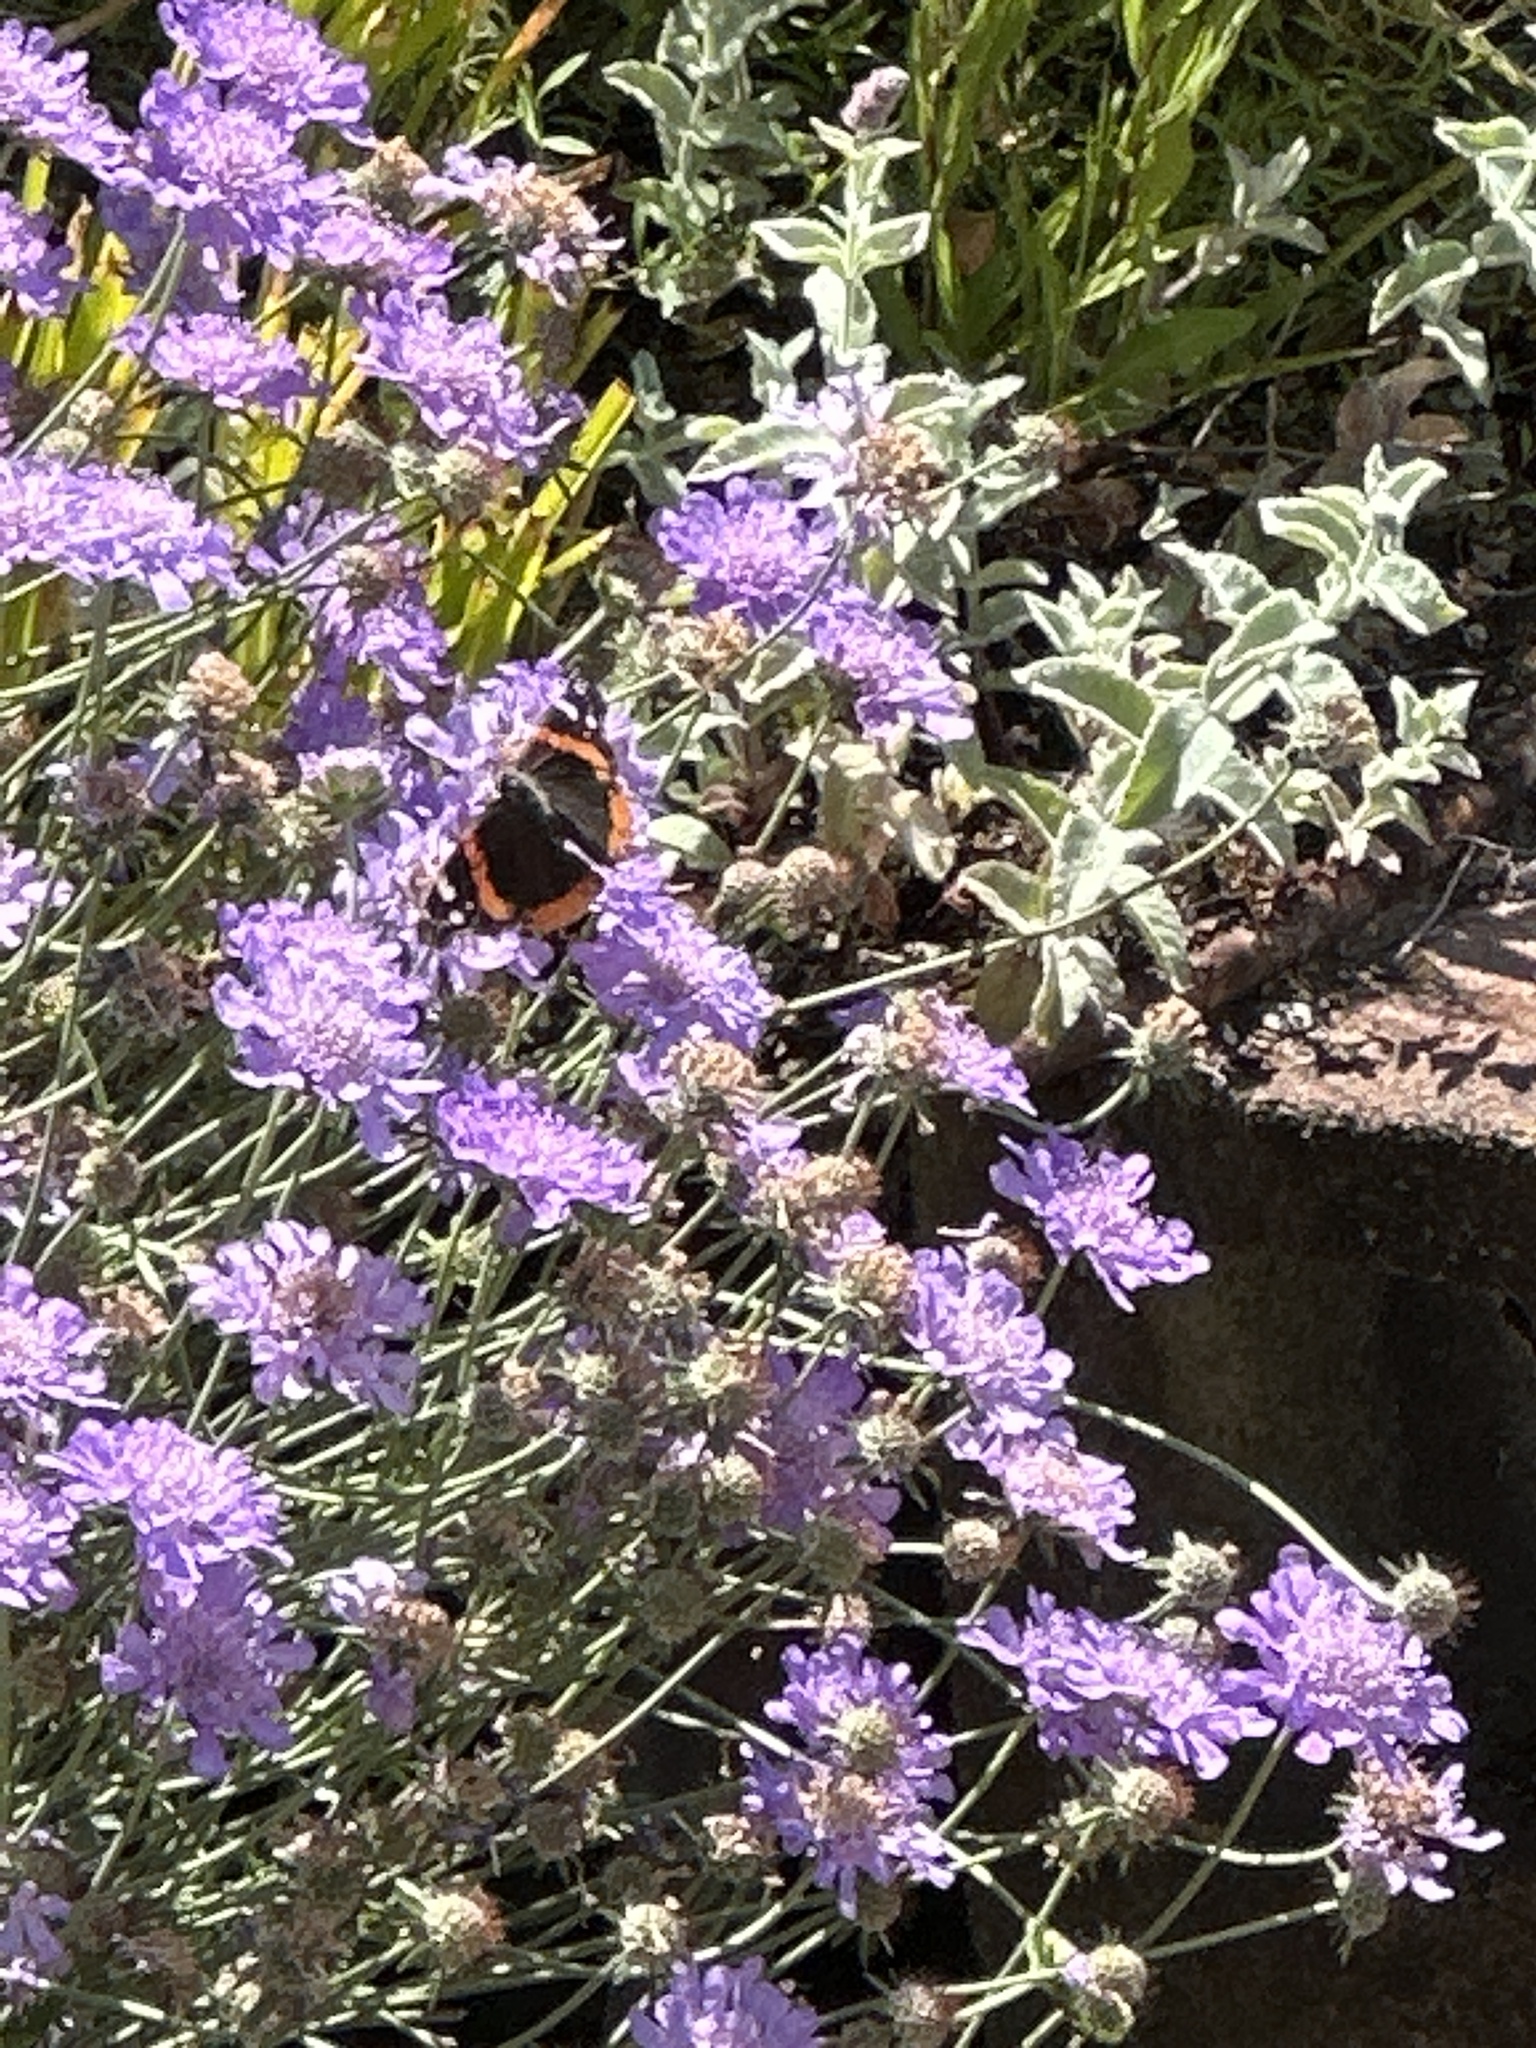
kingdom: Animalia
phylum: Arthropoda
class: Insecta
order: Lepidoptera
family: Nymphalidae
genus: Vanessa
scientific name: Vanessa atalanta
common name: Red admiral
